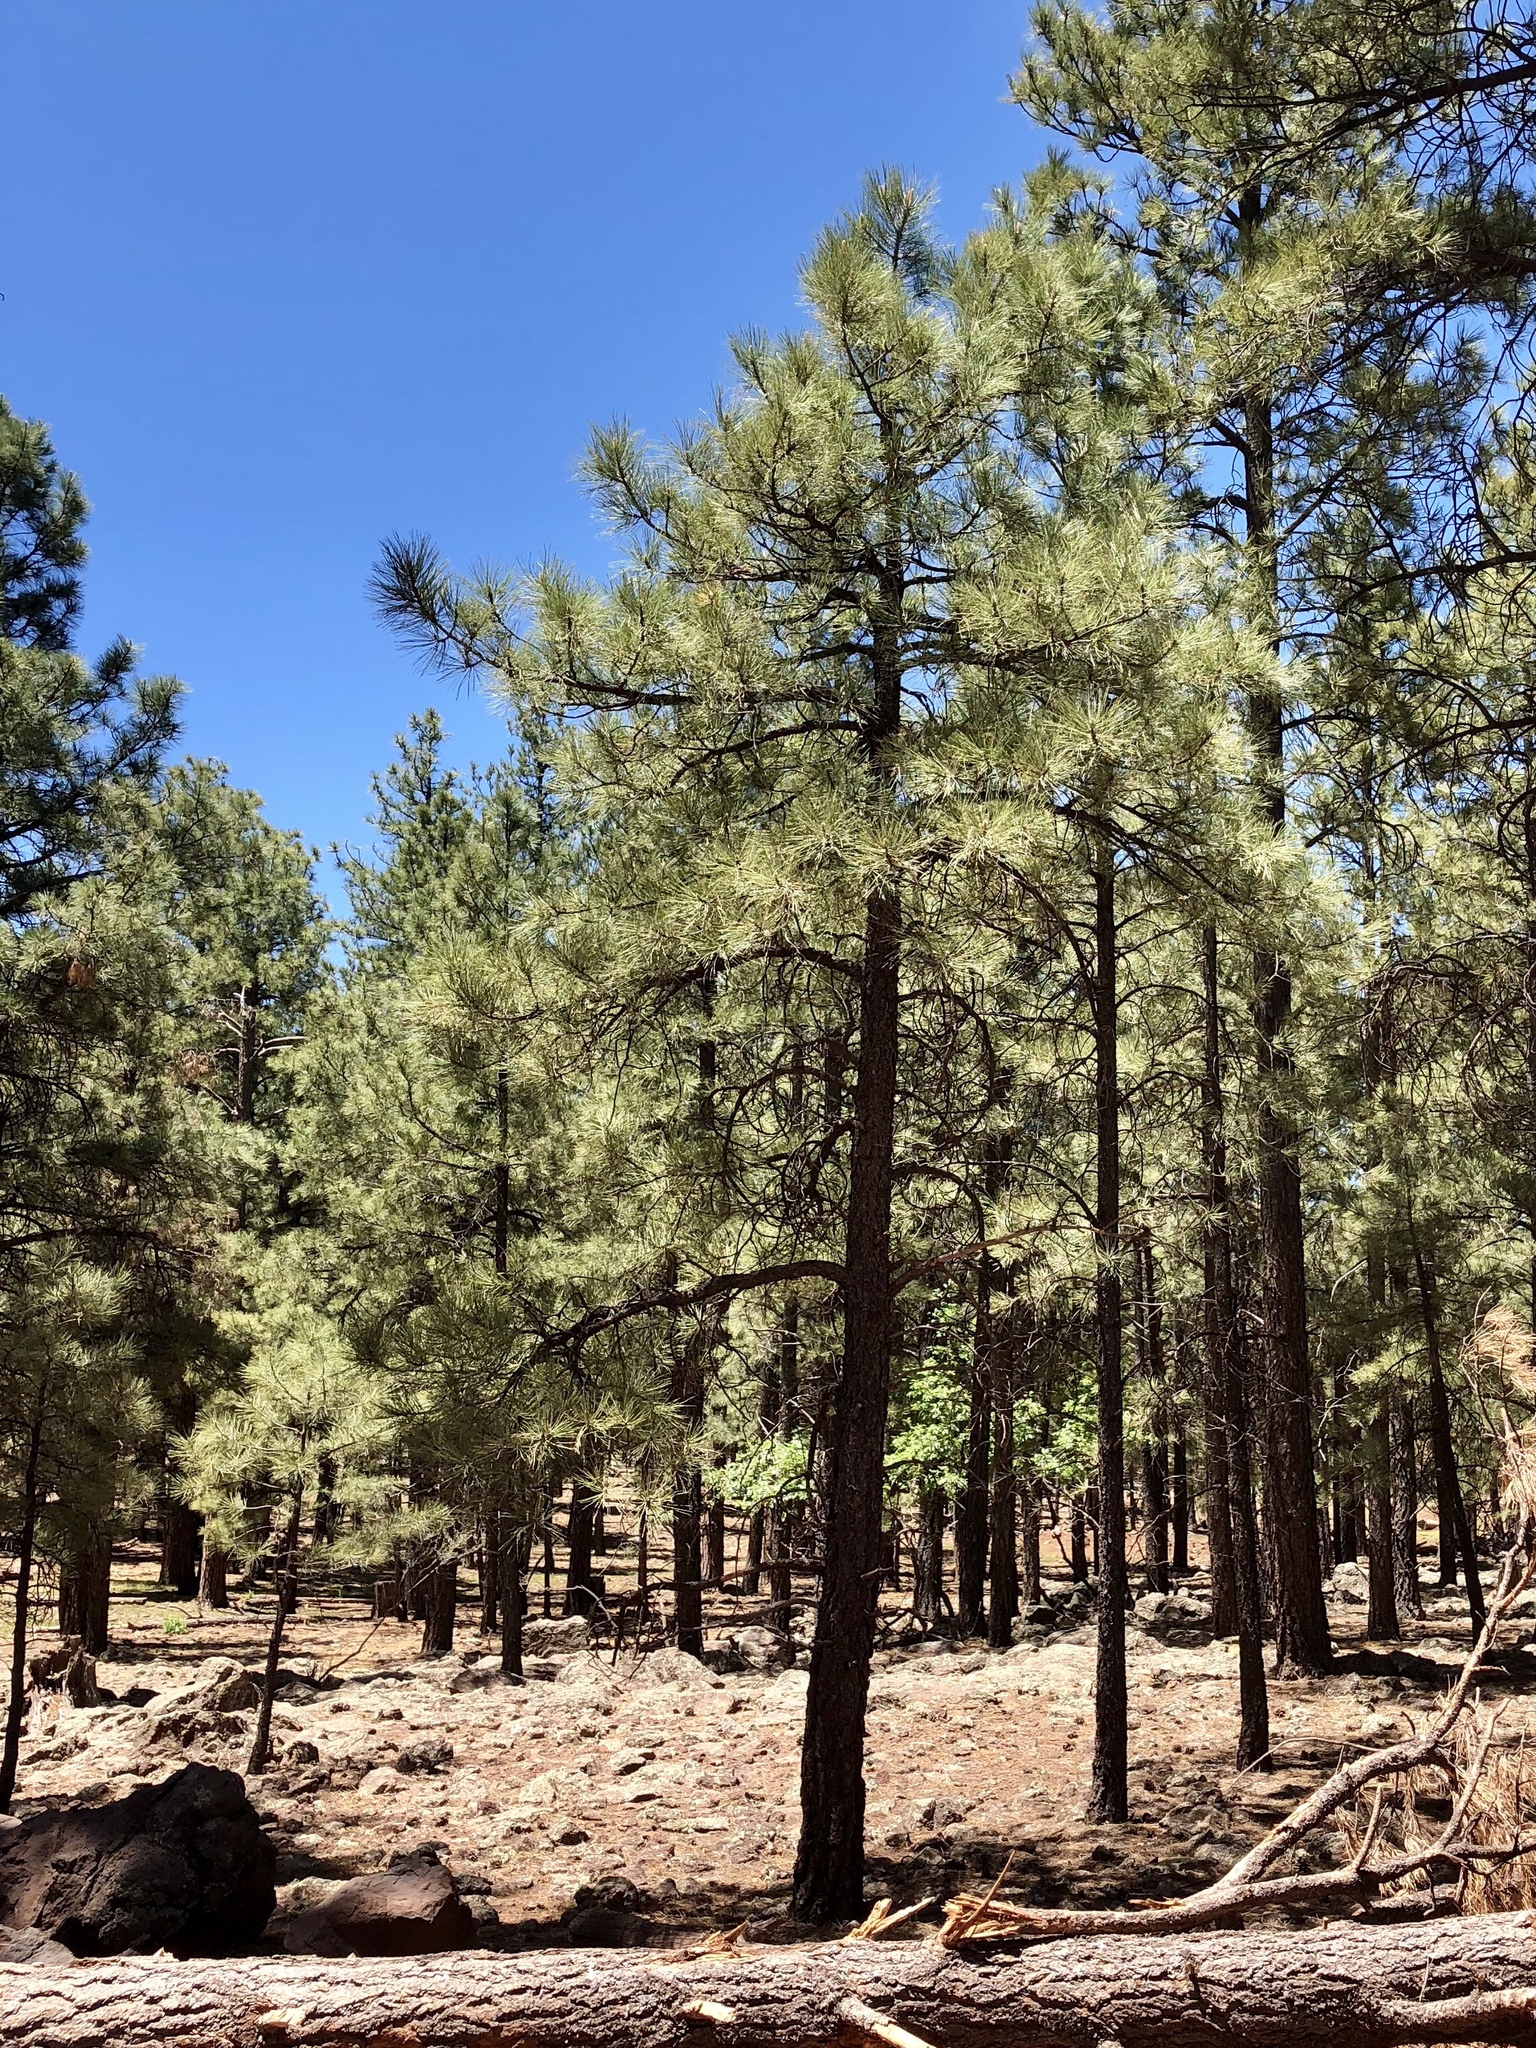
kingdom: Plantae
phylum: Tracheophyta
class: Pinopsida
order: Pinales
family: Pinaceae
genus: Pinus
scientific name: Pinus ponderosa
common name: Western yellow-pine
